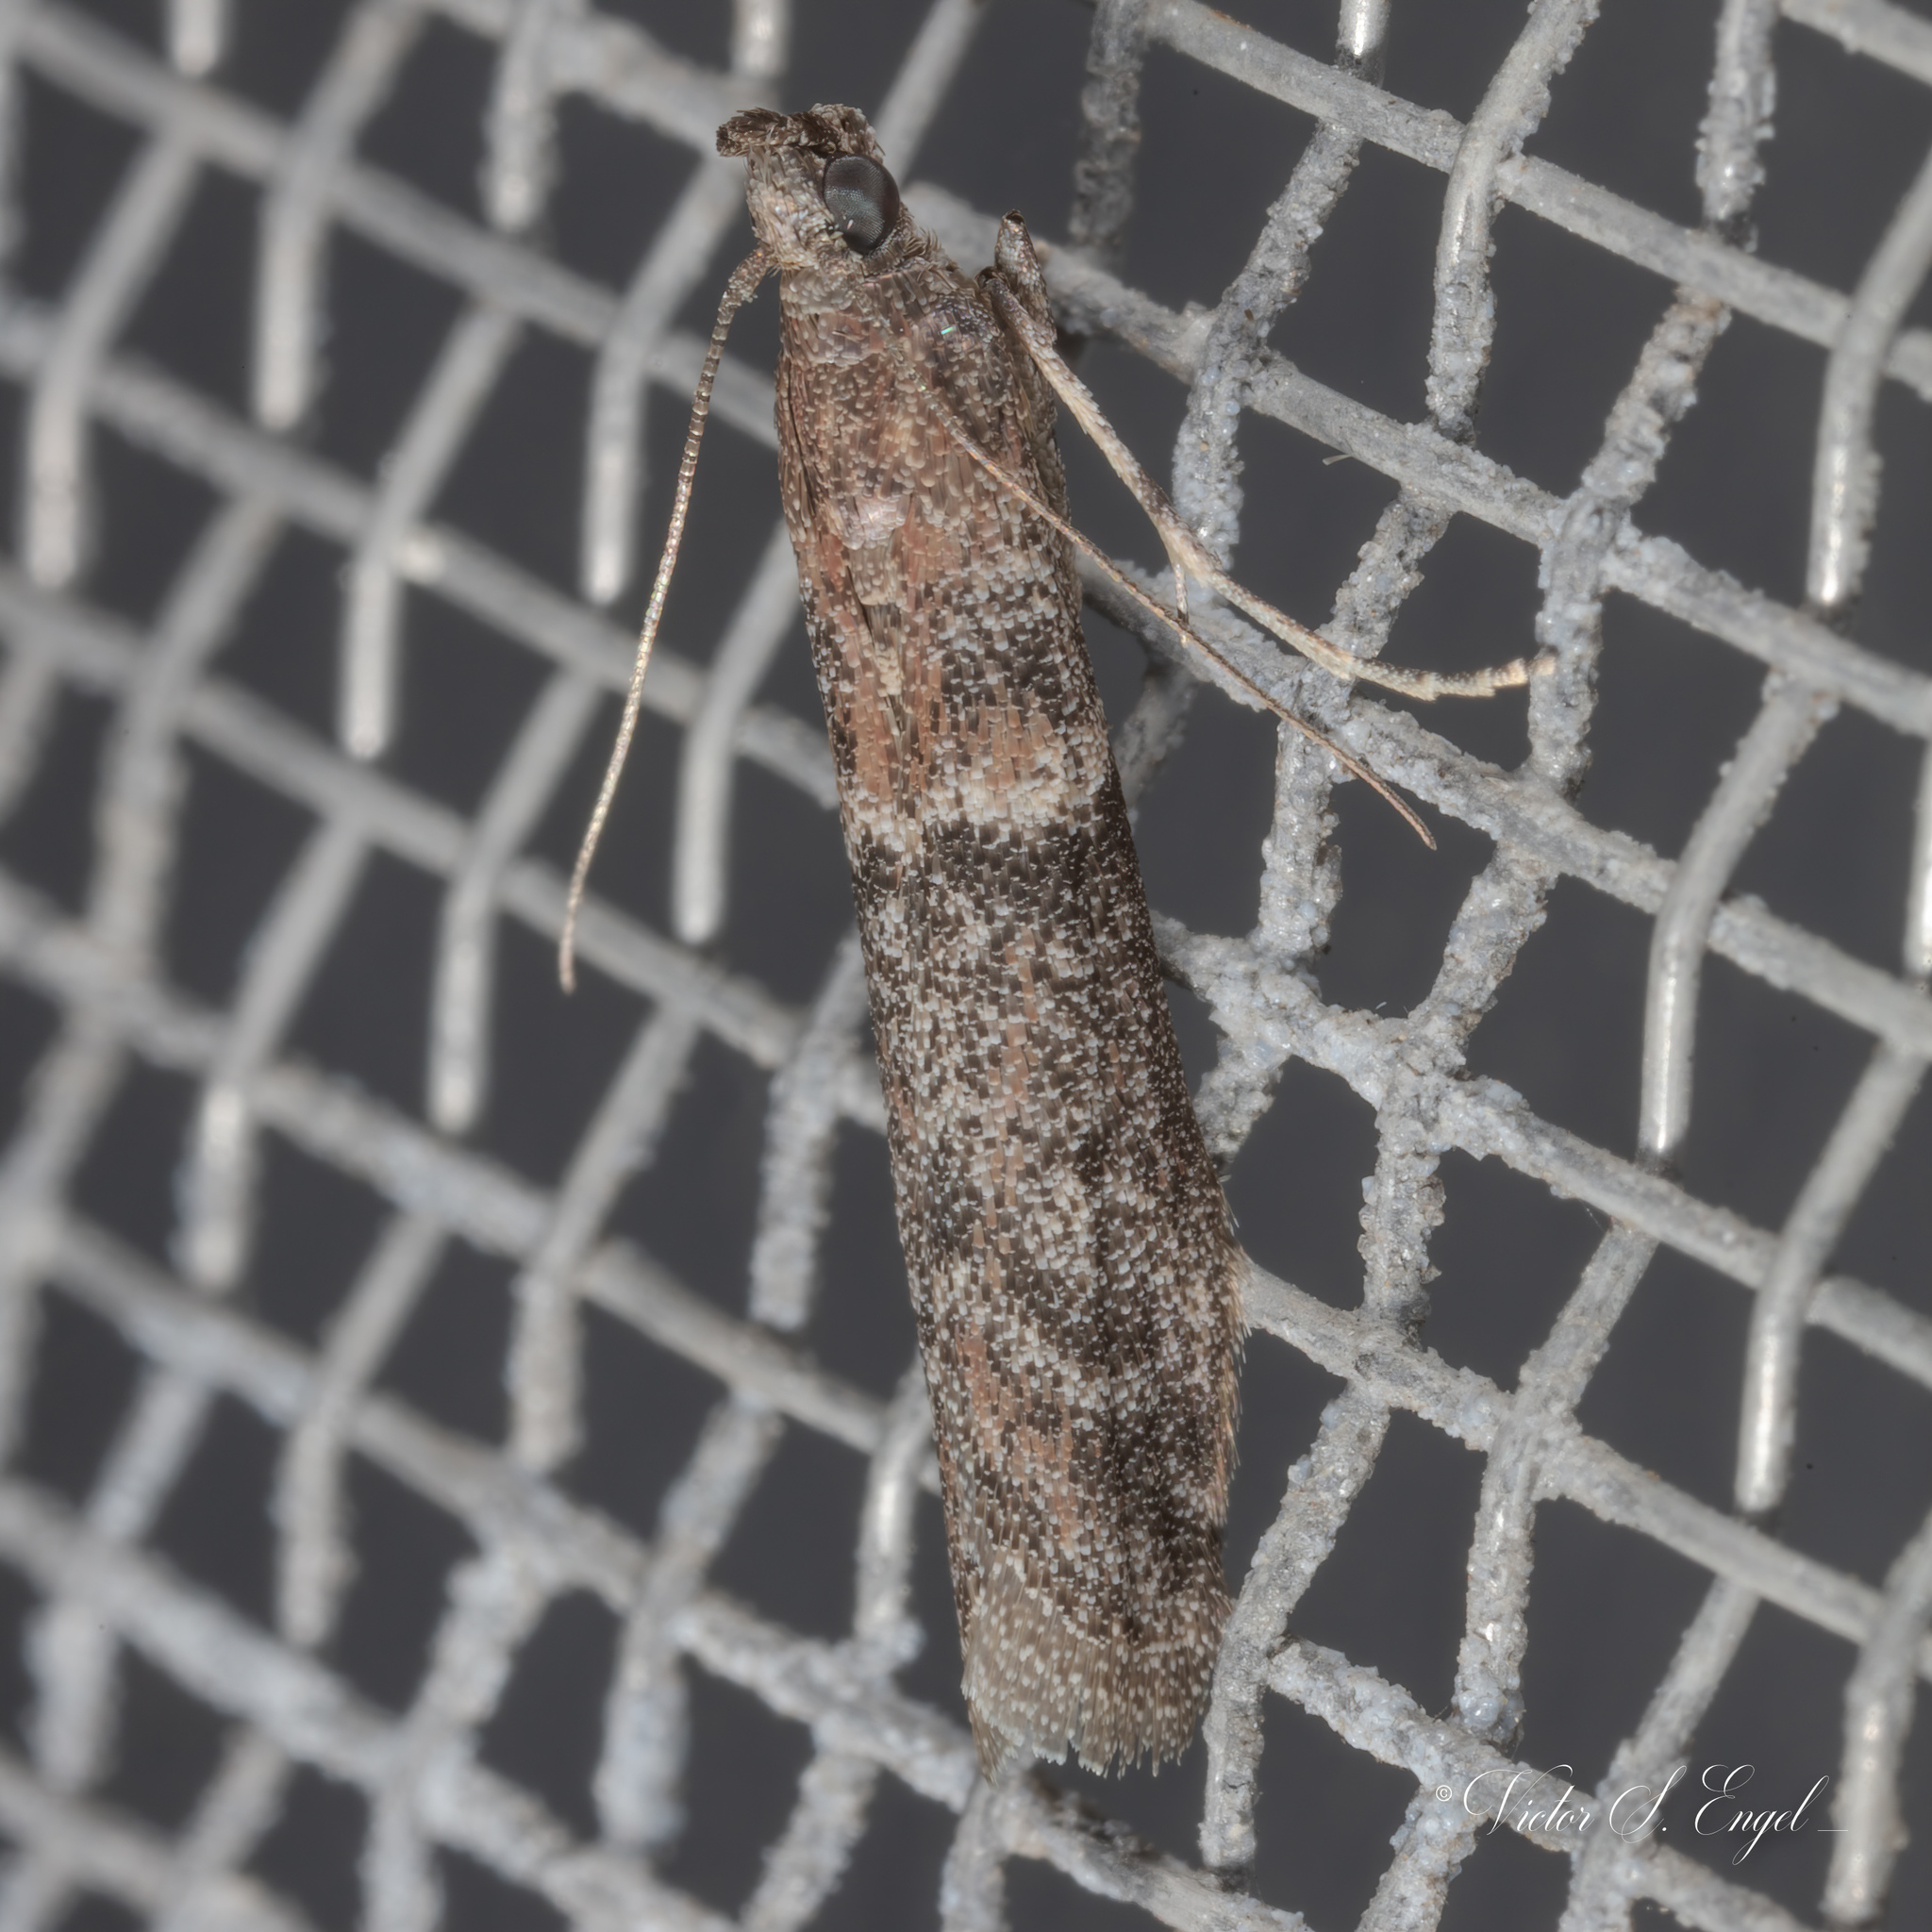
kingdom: Animalia
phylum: Arthropoda
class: Insecta
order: Lepidoptera
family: Pyralidae
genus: Ephestiodes
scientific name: Ephestiodes gilvescentella
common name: Moth
